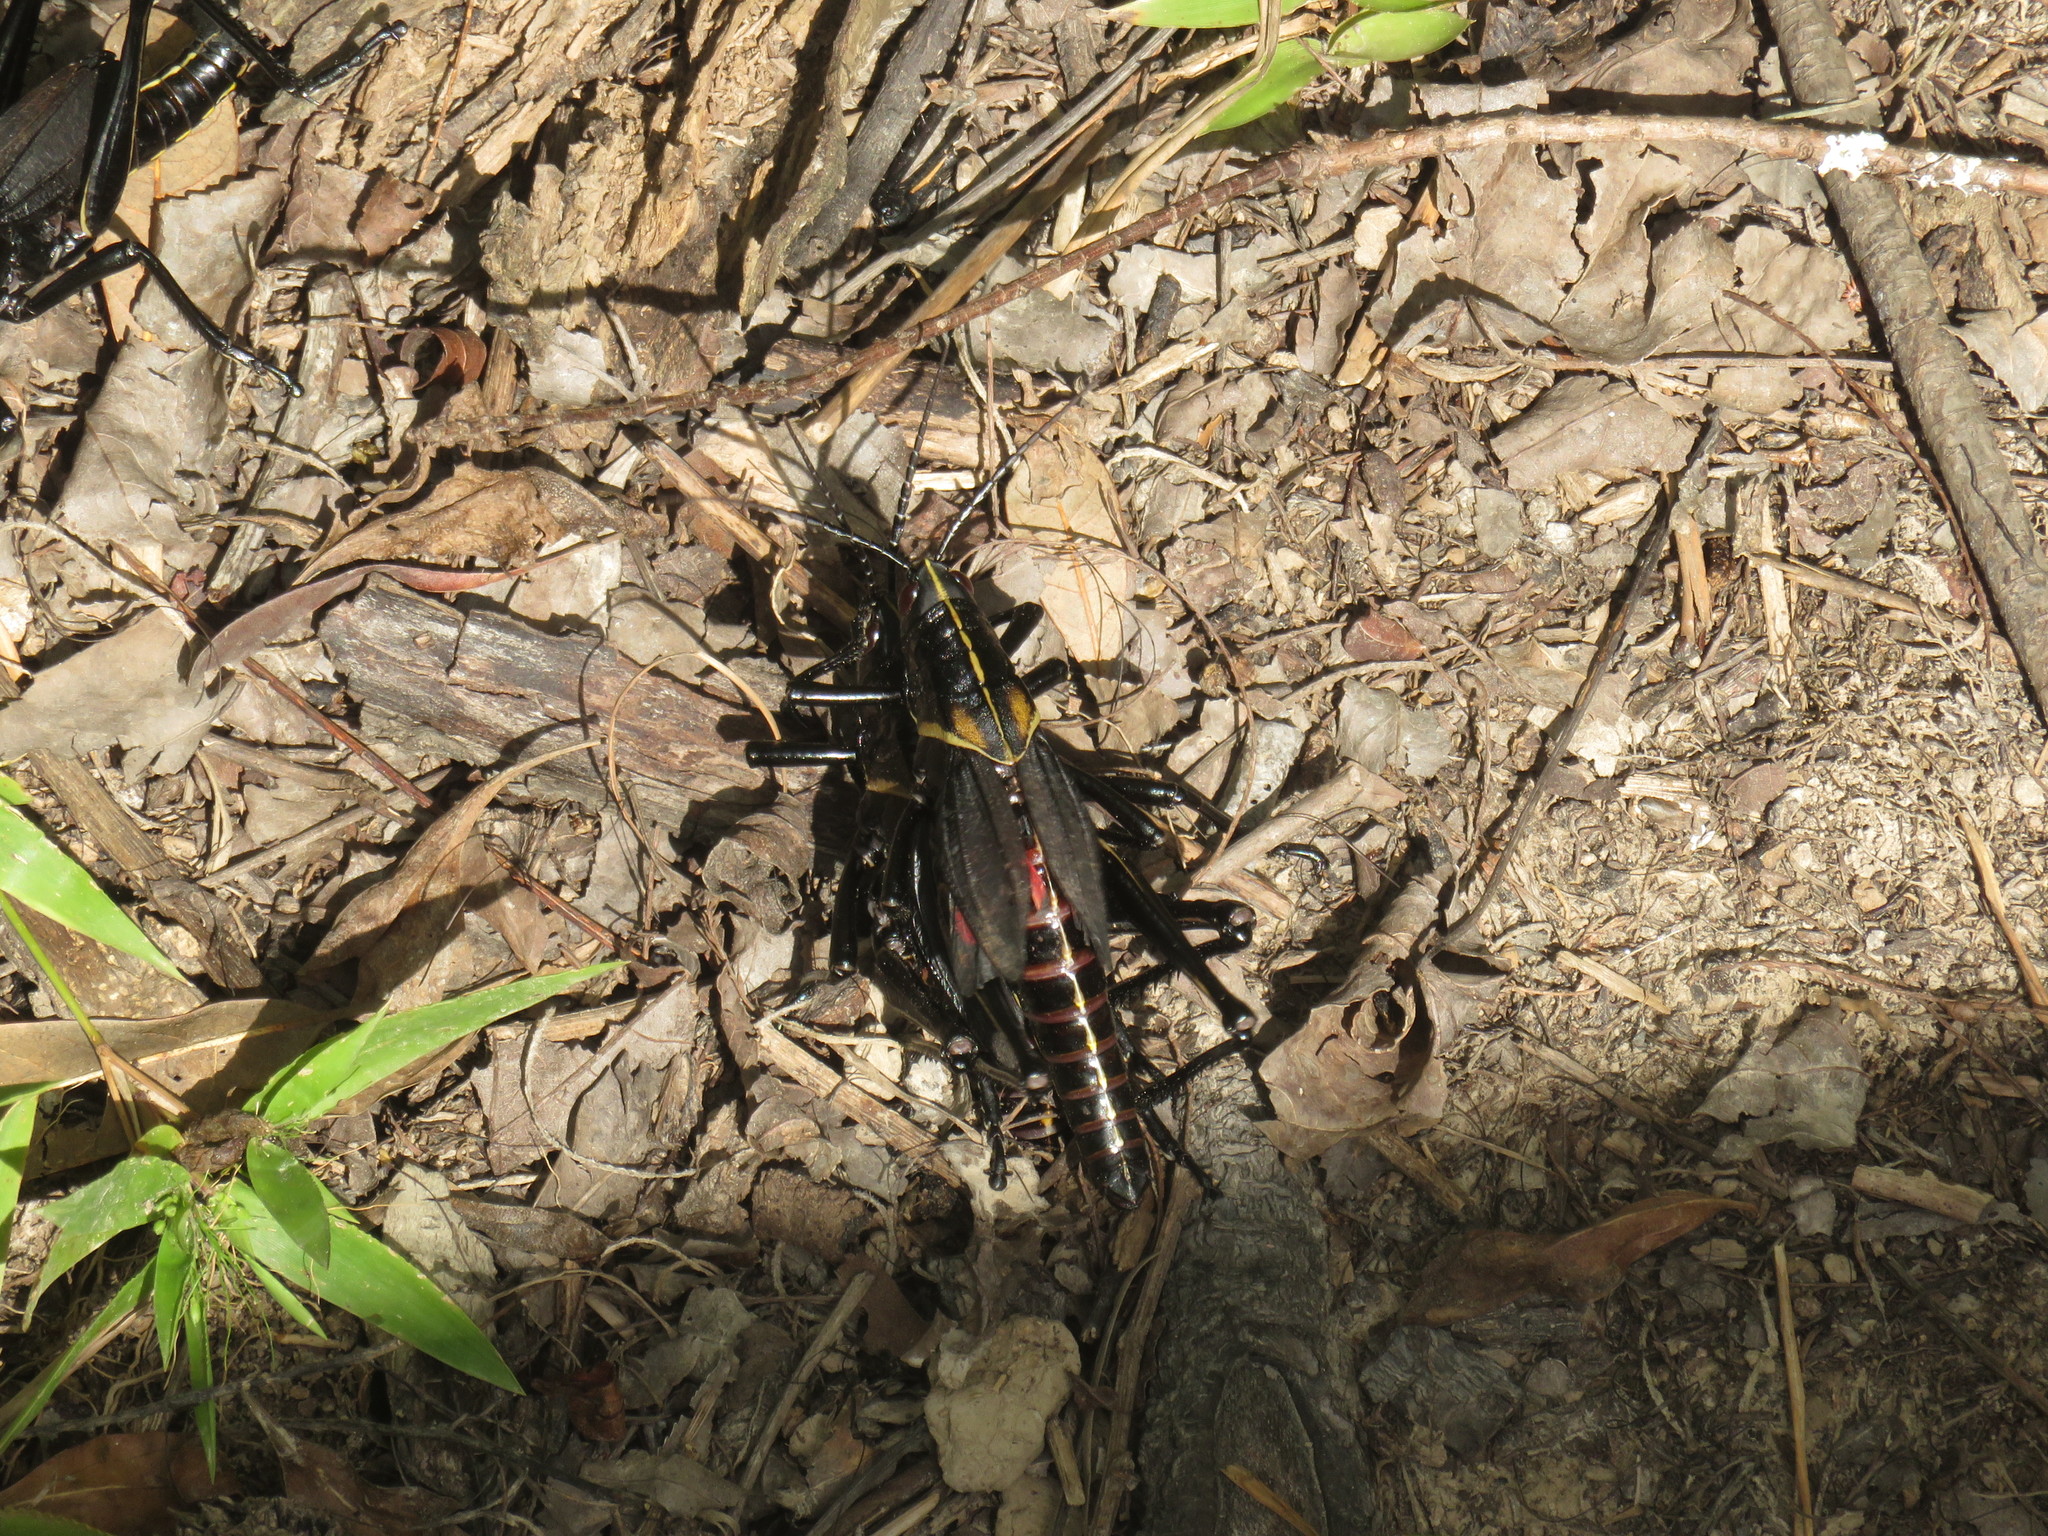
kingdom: Animalia
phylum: Arthropoda
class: Insecta
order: Orthoptera
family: Romaleidae
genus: Romalea
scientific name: Romalea microptera
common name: Eastern lubber grasshopper
